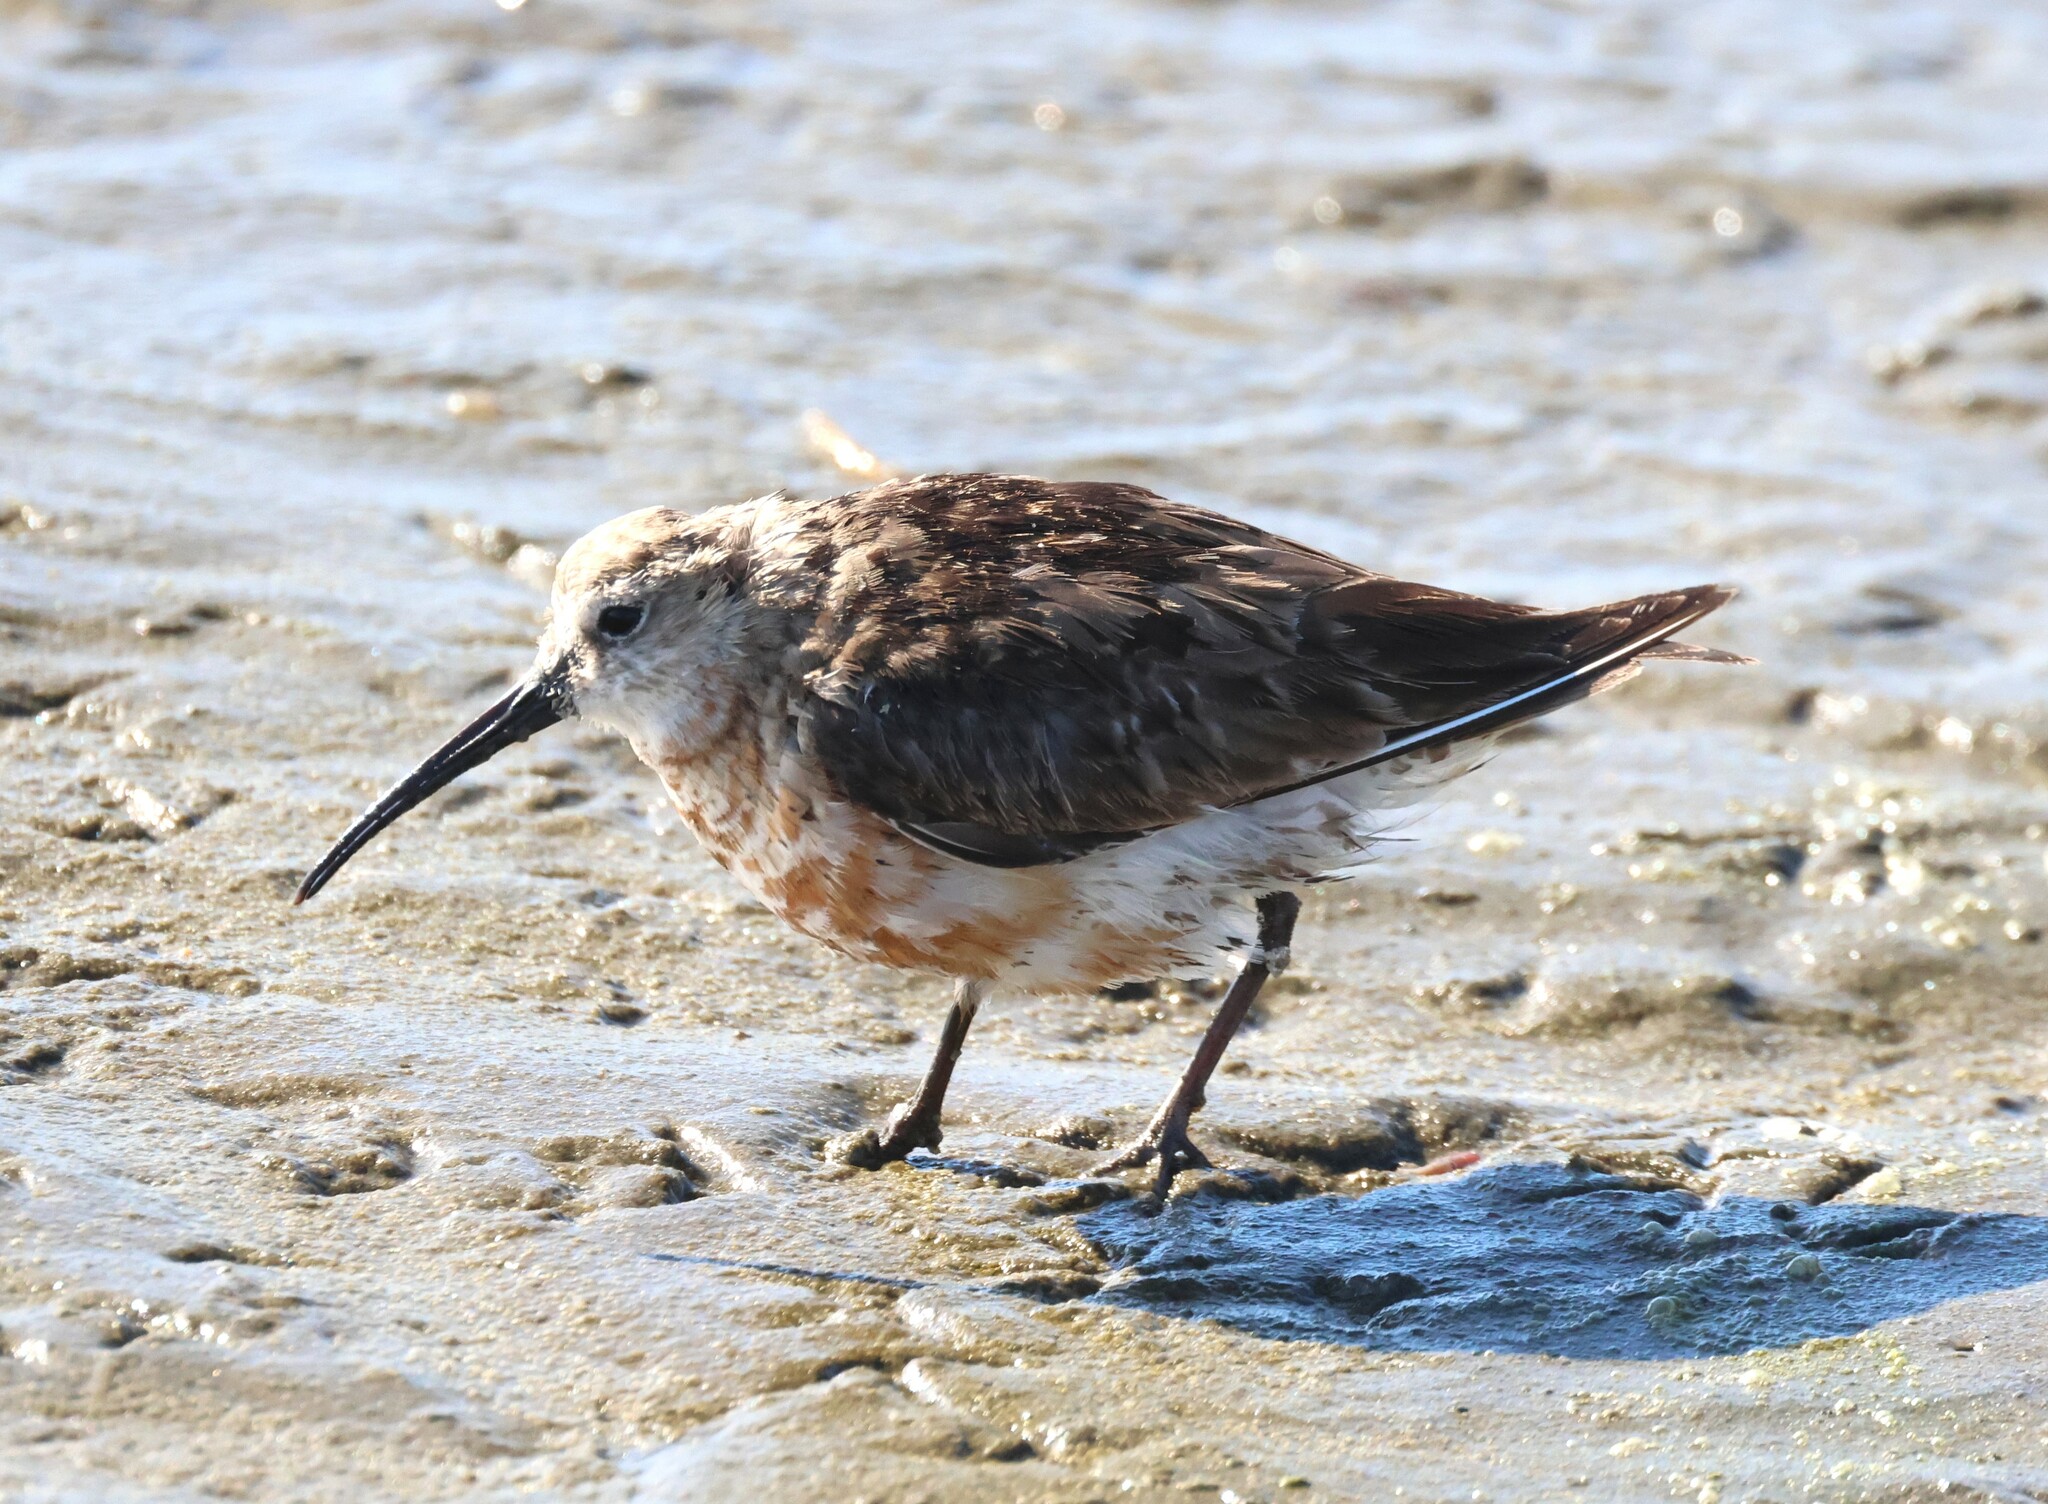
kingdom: Animalia
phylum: Chordata
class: Aves
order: Charadriiformes
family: Scolopacidae
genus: Calidris
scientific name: Calidris ferruginea
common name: Curlew sandpiper
